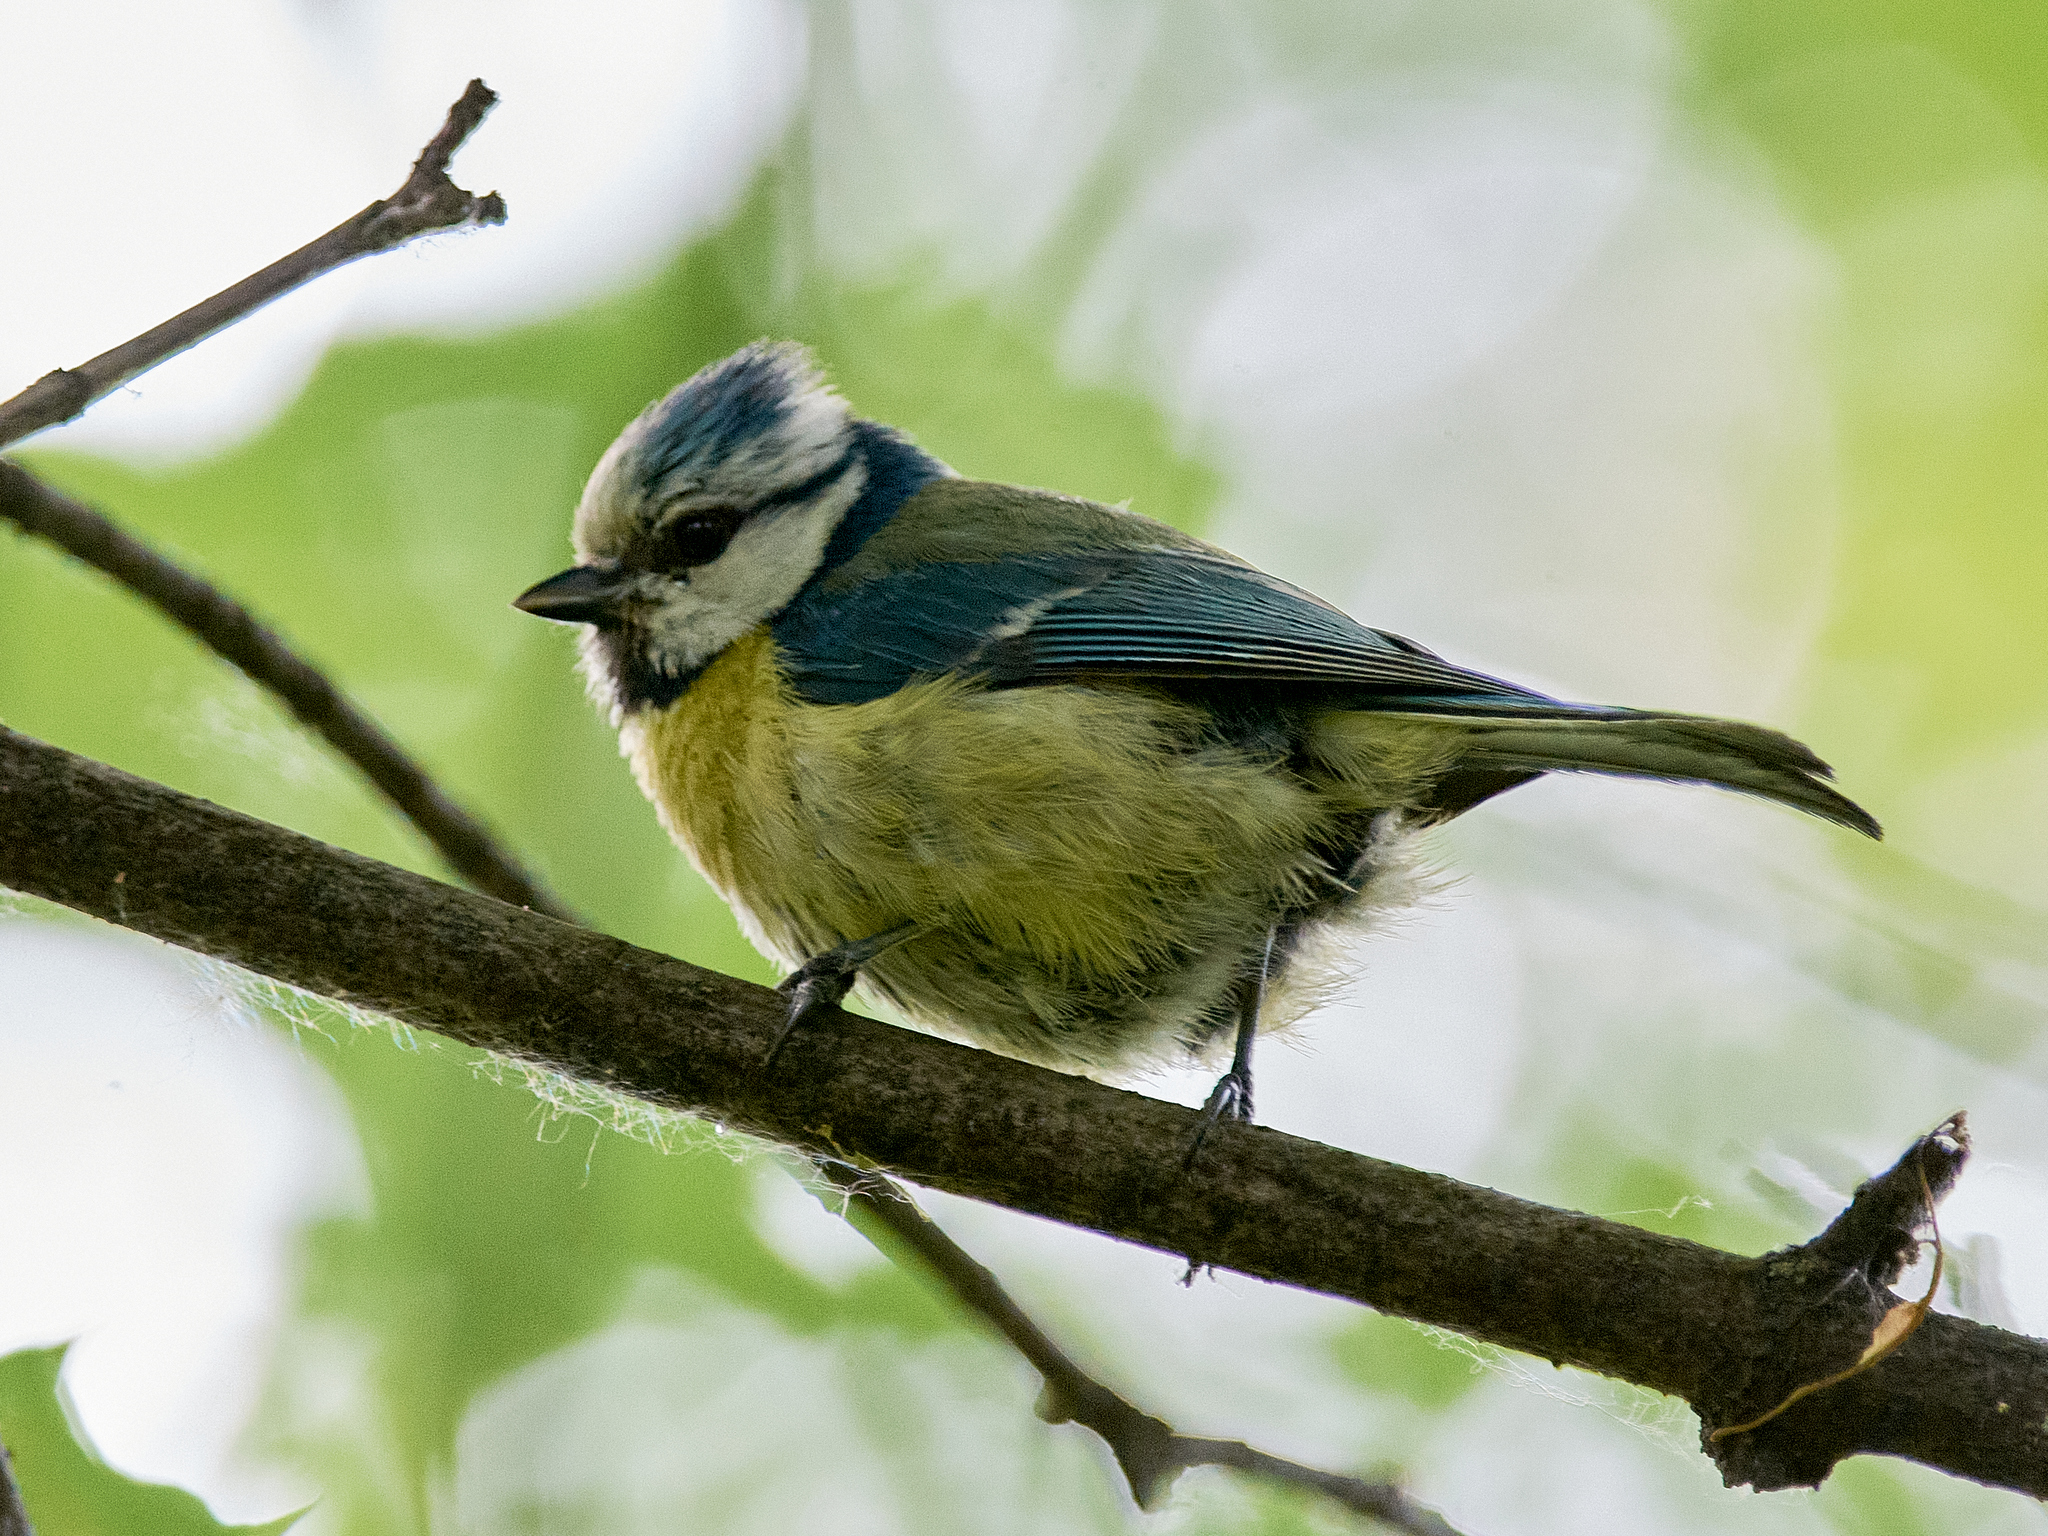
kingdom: Animalia
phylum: Chordata
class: Aves
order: Passeriformes
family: Paridae
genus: Cyanistes
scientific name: Cyanistes caeruleus
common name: Eurasian blue tit
